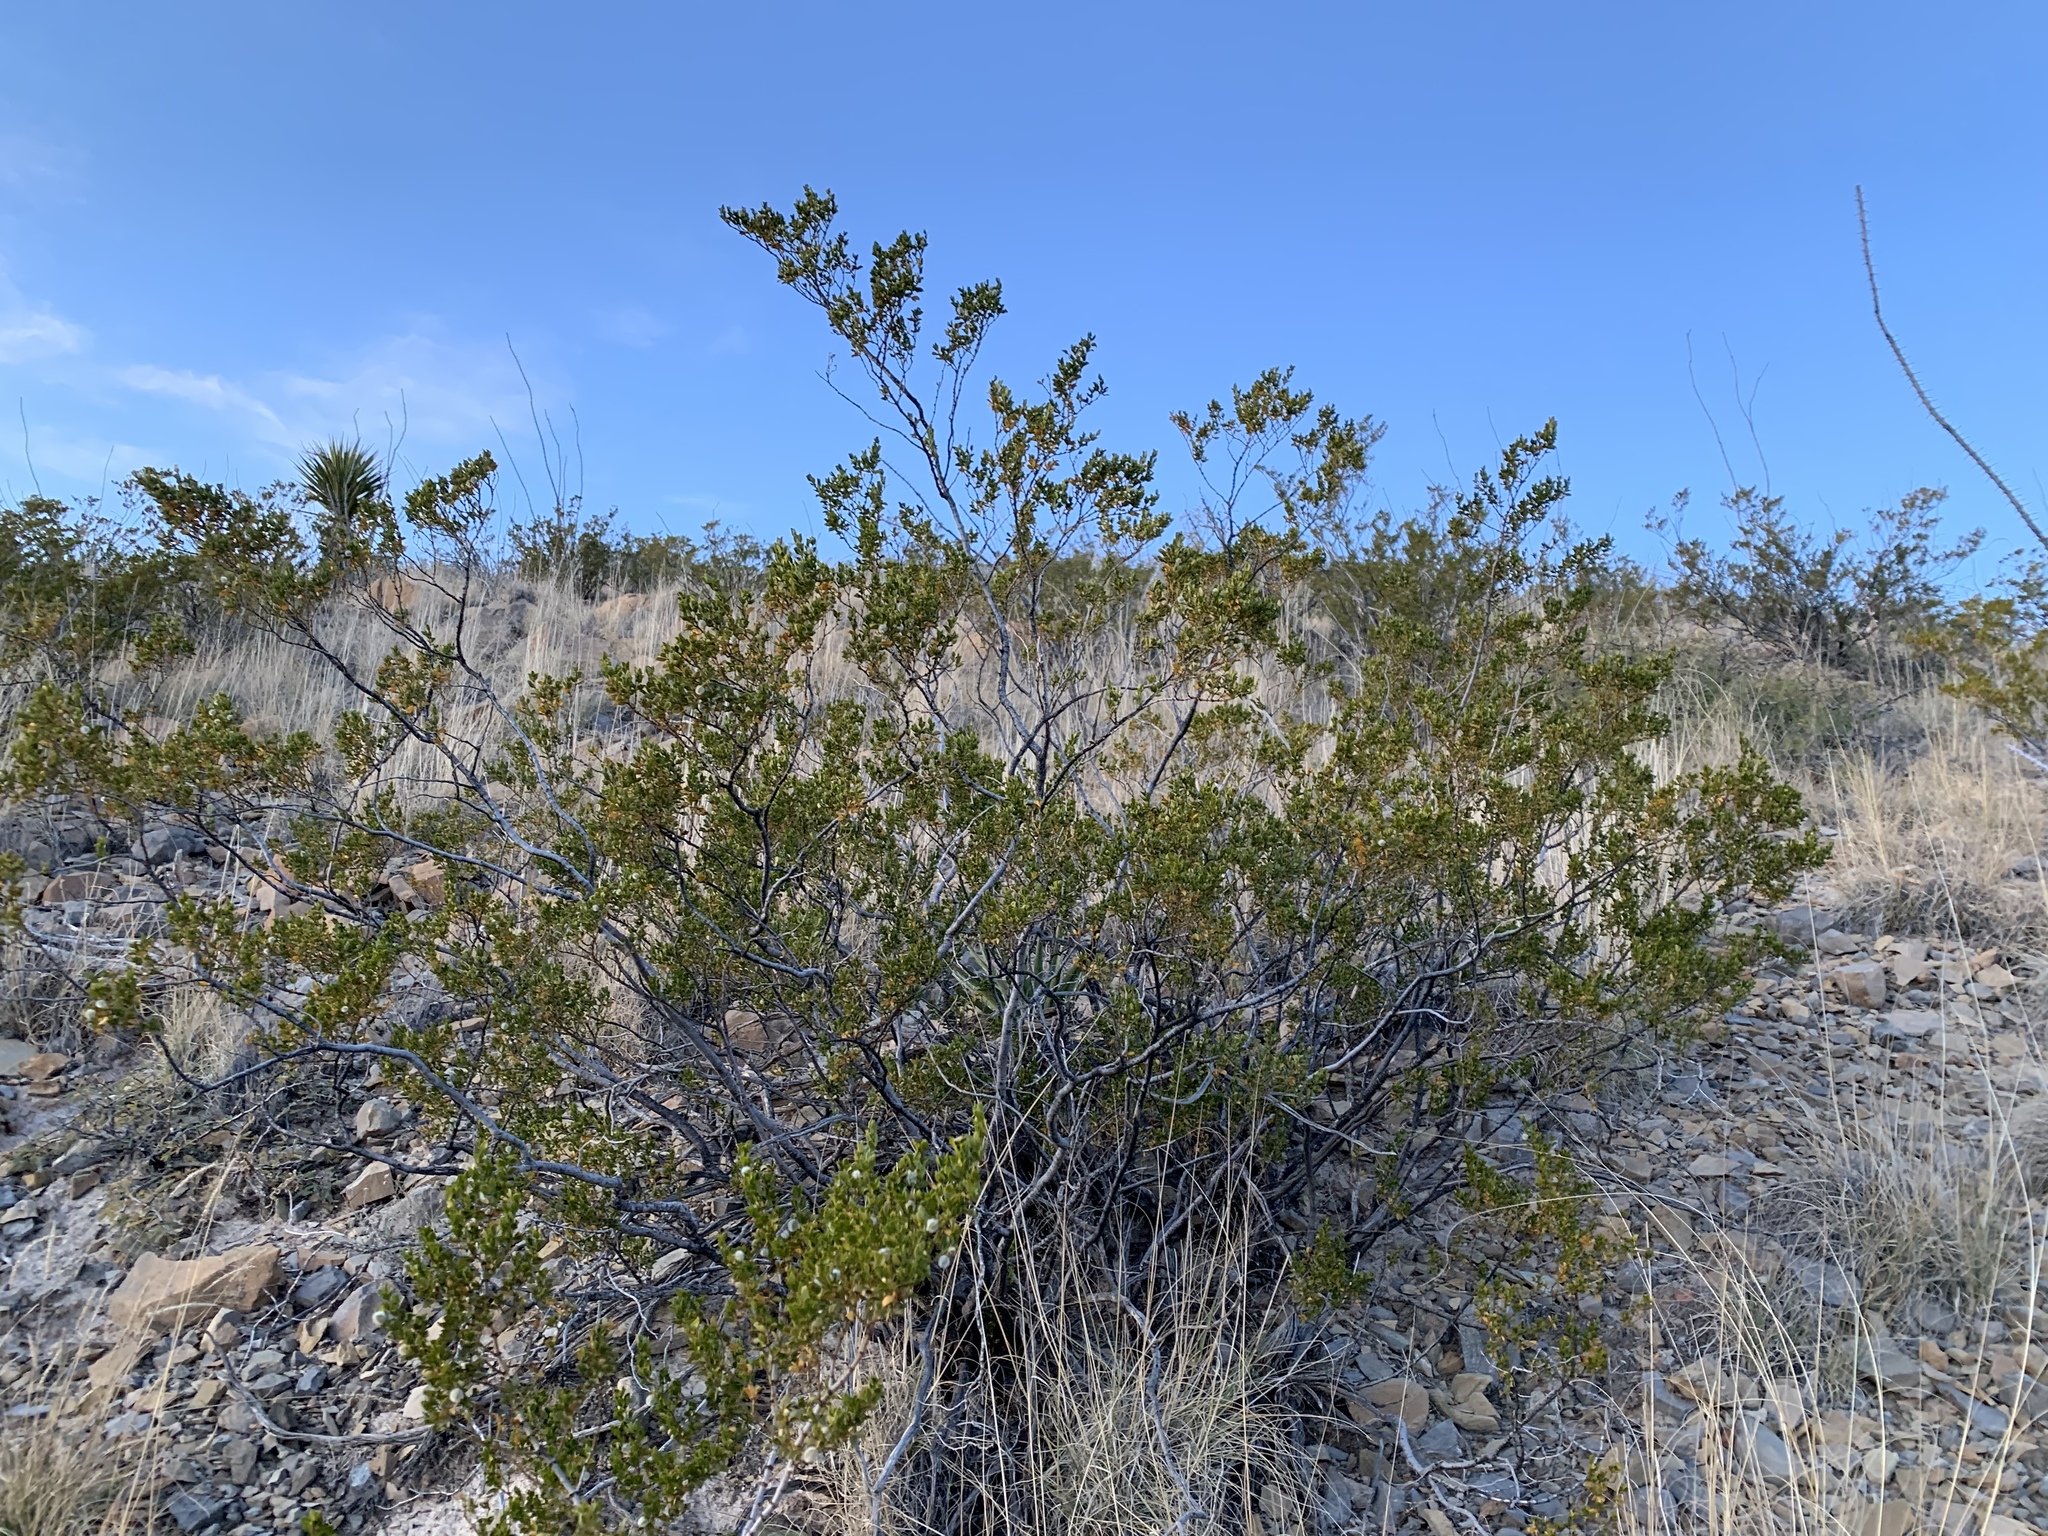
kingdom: Plantae
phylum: Tracheophyta
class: Magnoliopsida
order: Zygophyllales
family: Zygophyllaceae
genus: Larrea
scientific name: Larrea tridentata
